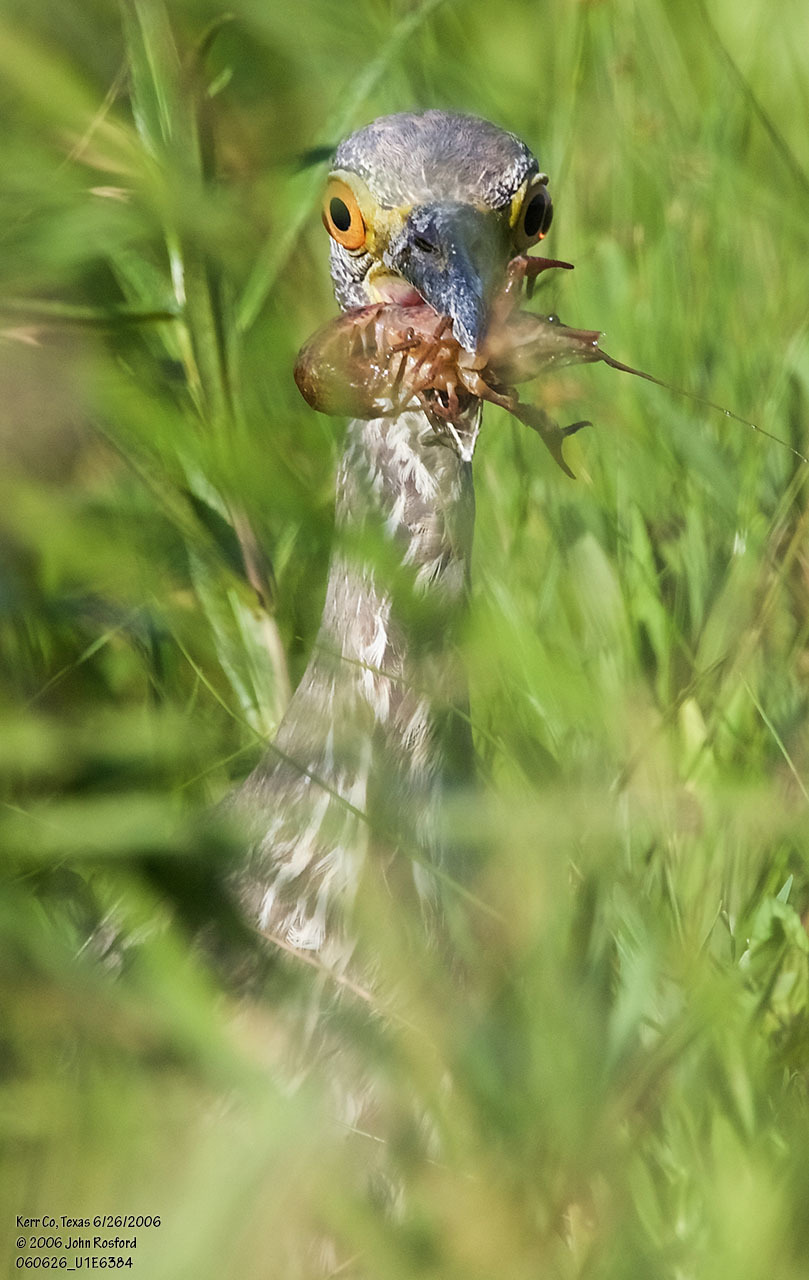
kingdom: Animalia
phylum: Chordata
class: Aves
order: Pelecaniformes
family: Ardeidae
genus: Nyctanassa
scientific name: Nyctanassa violacea
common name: Yellow-crowned night heron
